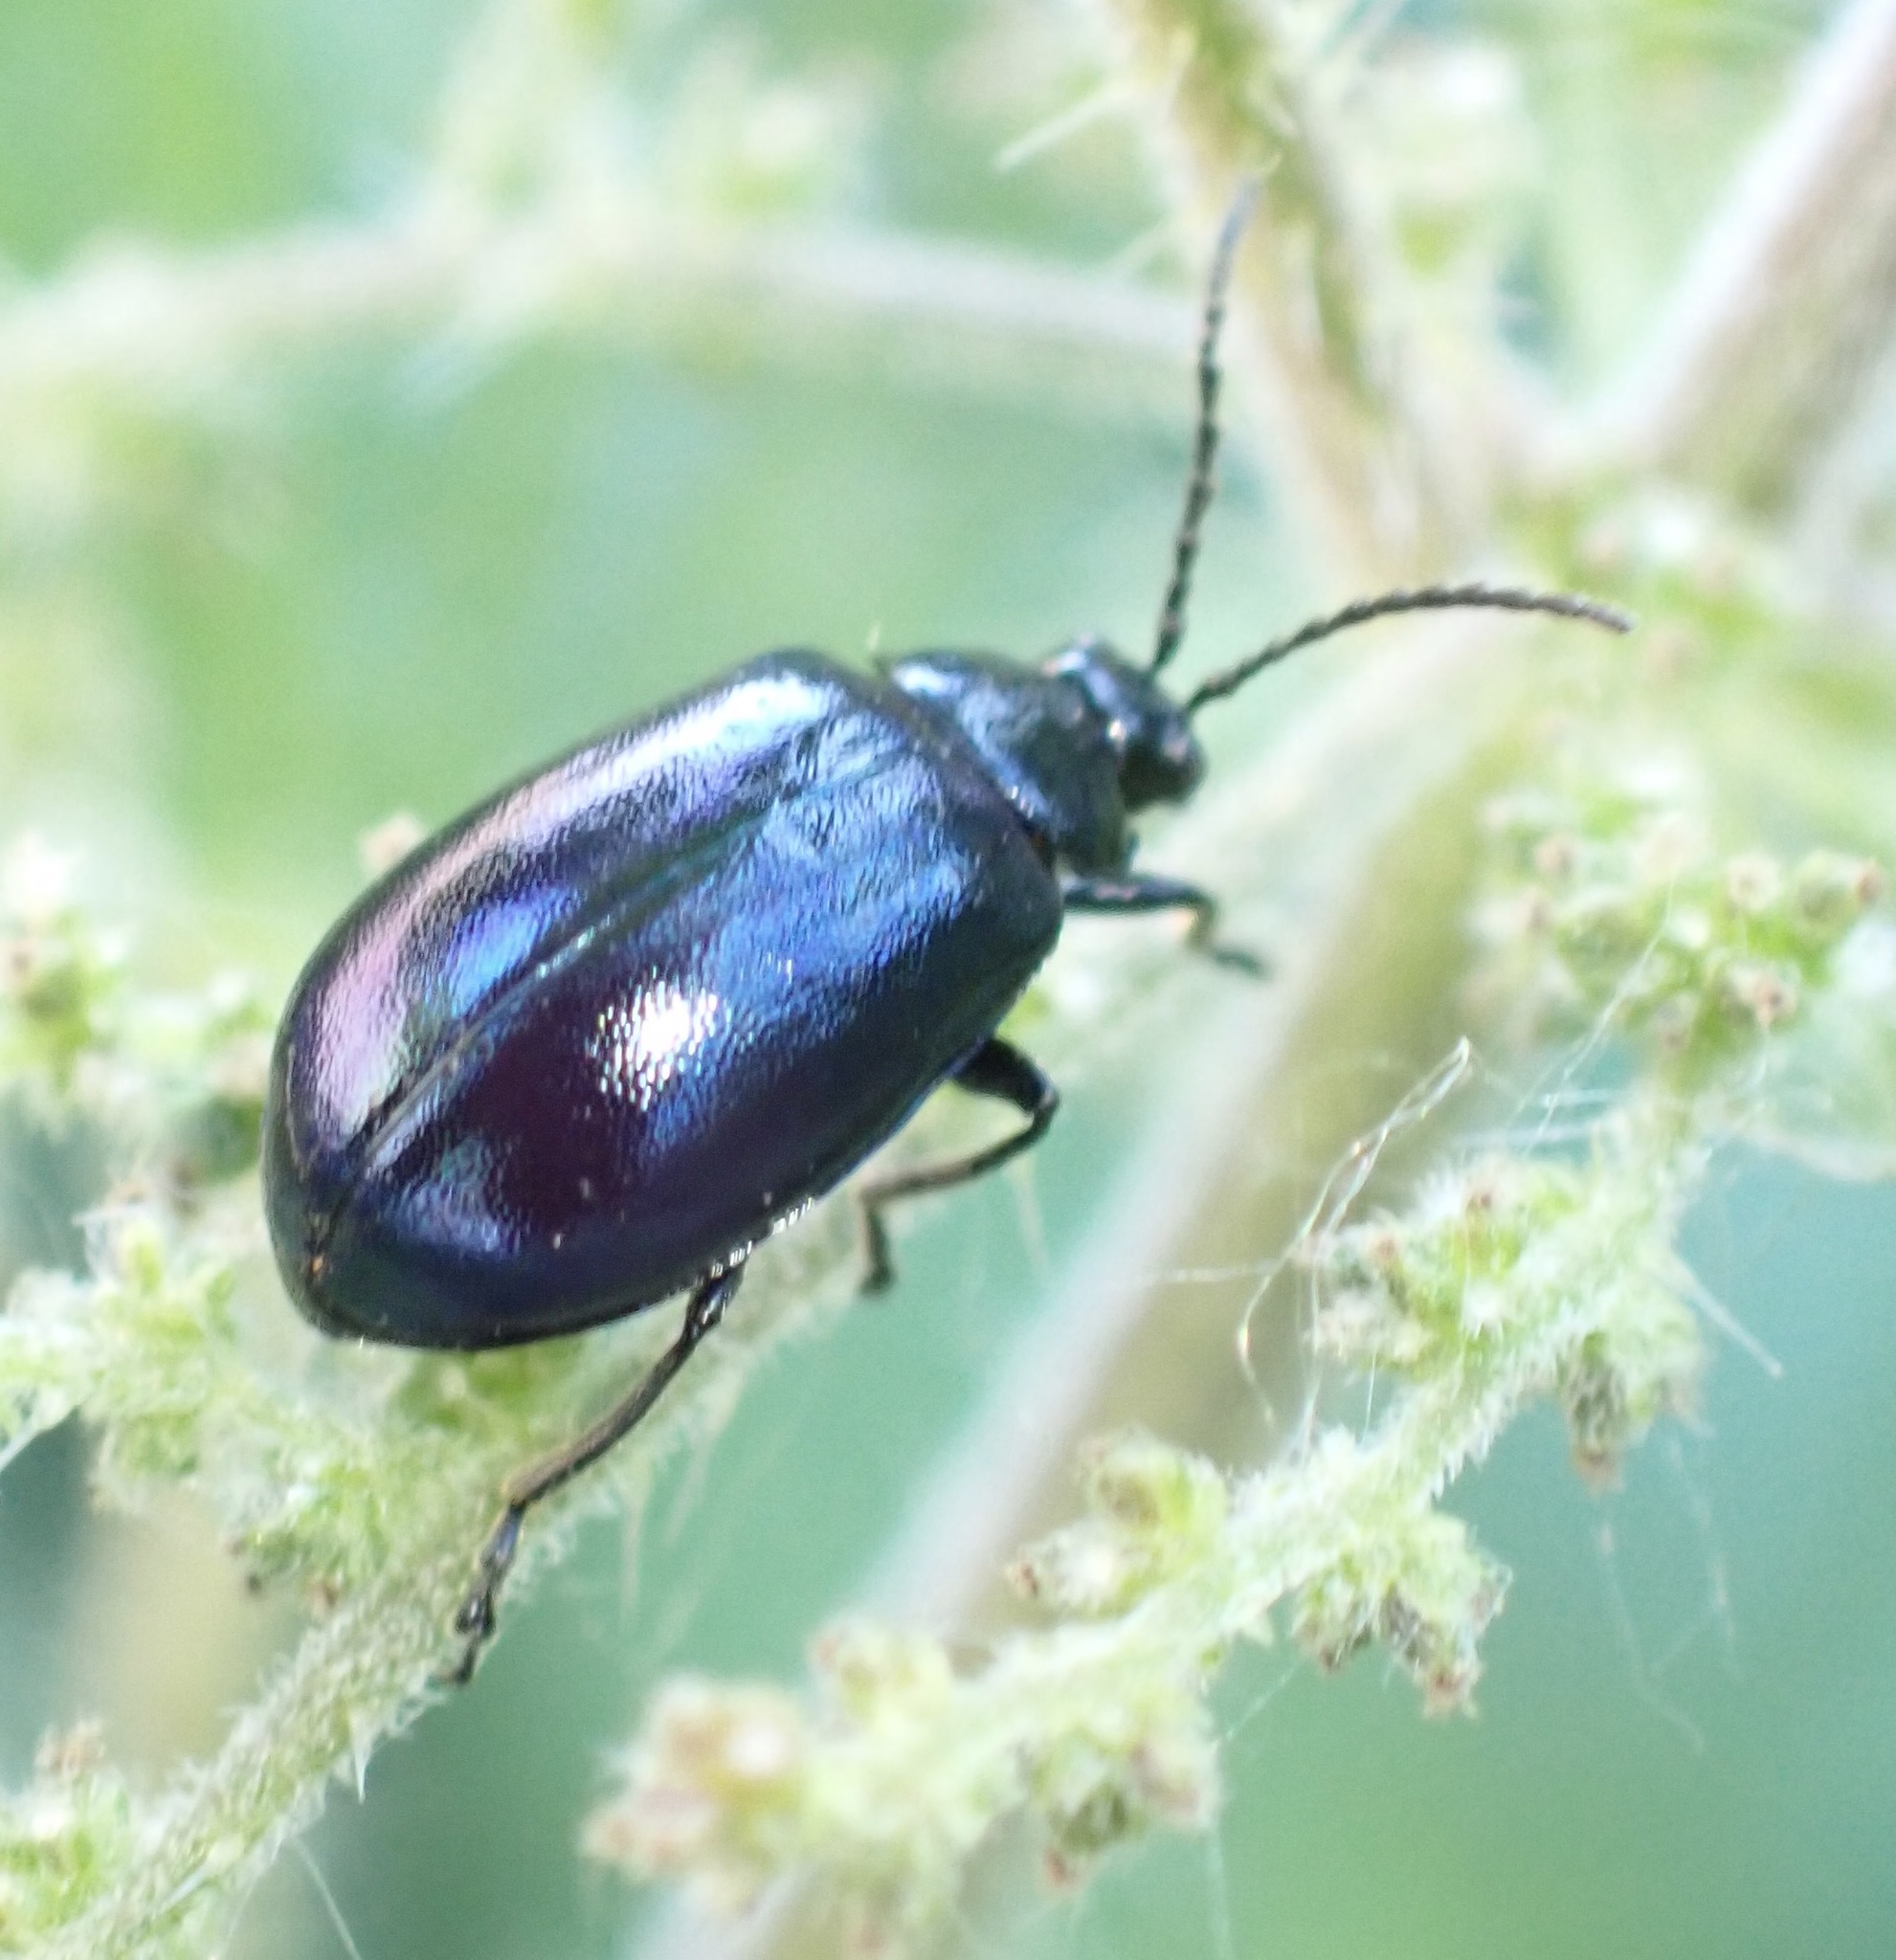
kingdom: Animalia
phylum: Arthropoda
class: Insecta
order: Coleoptera
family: Chrysomelidae
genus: Agelastica
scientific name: Agelastica alni
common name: Alder leaf beetle
